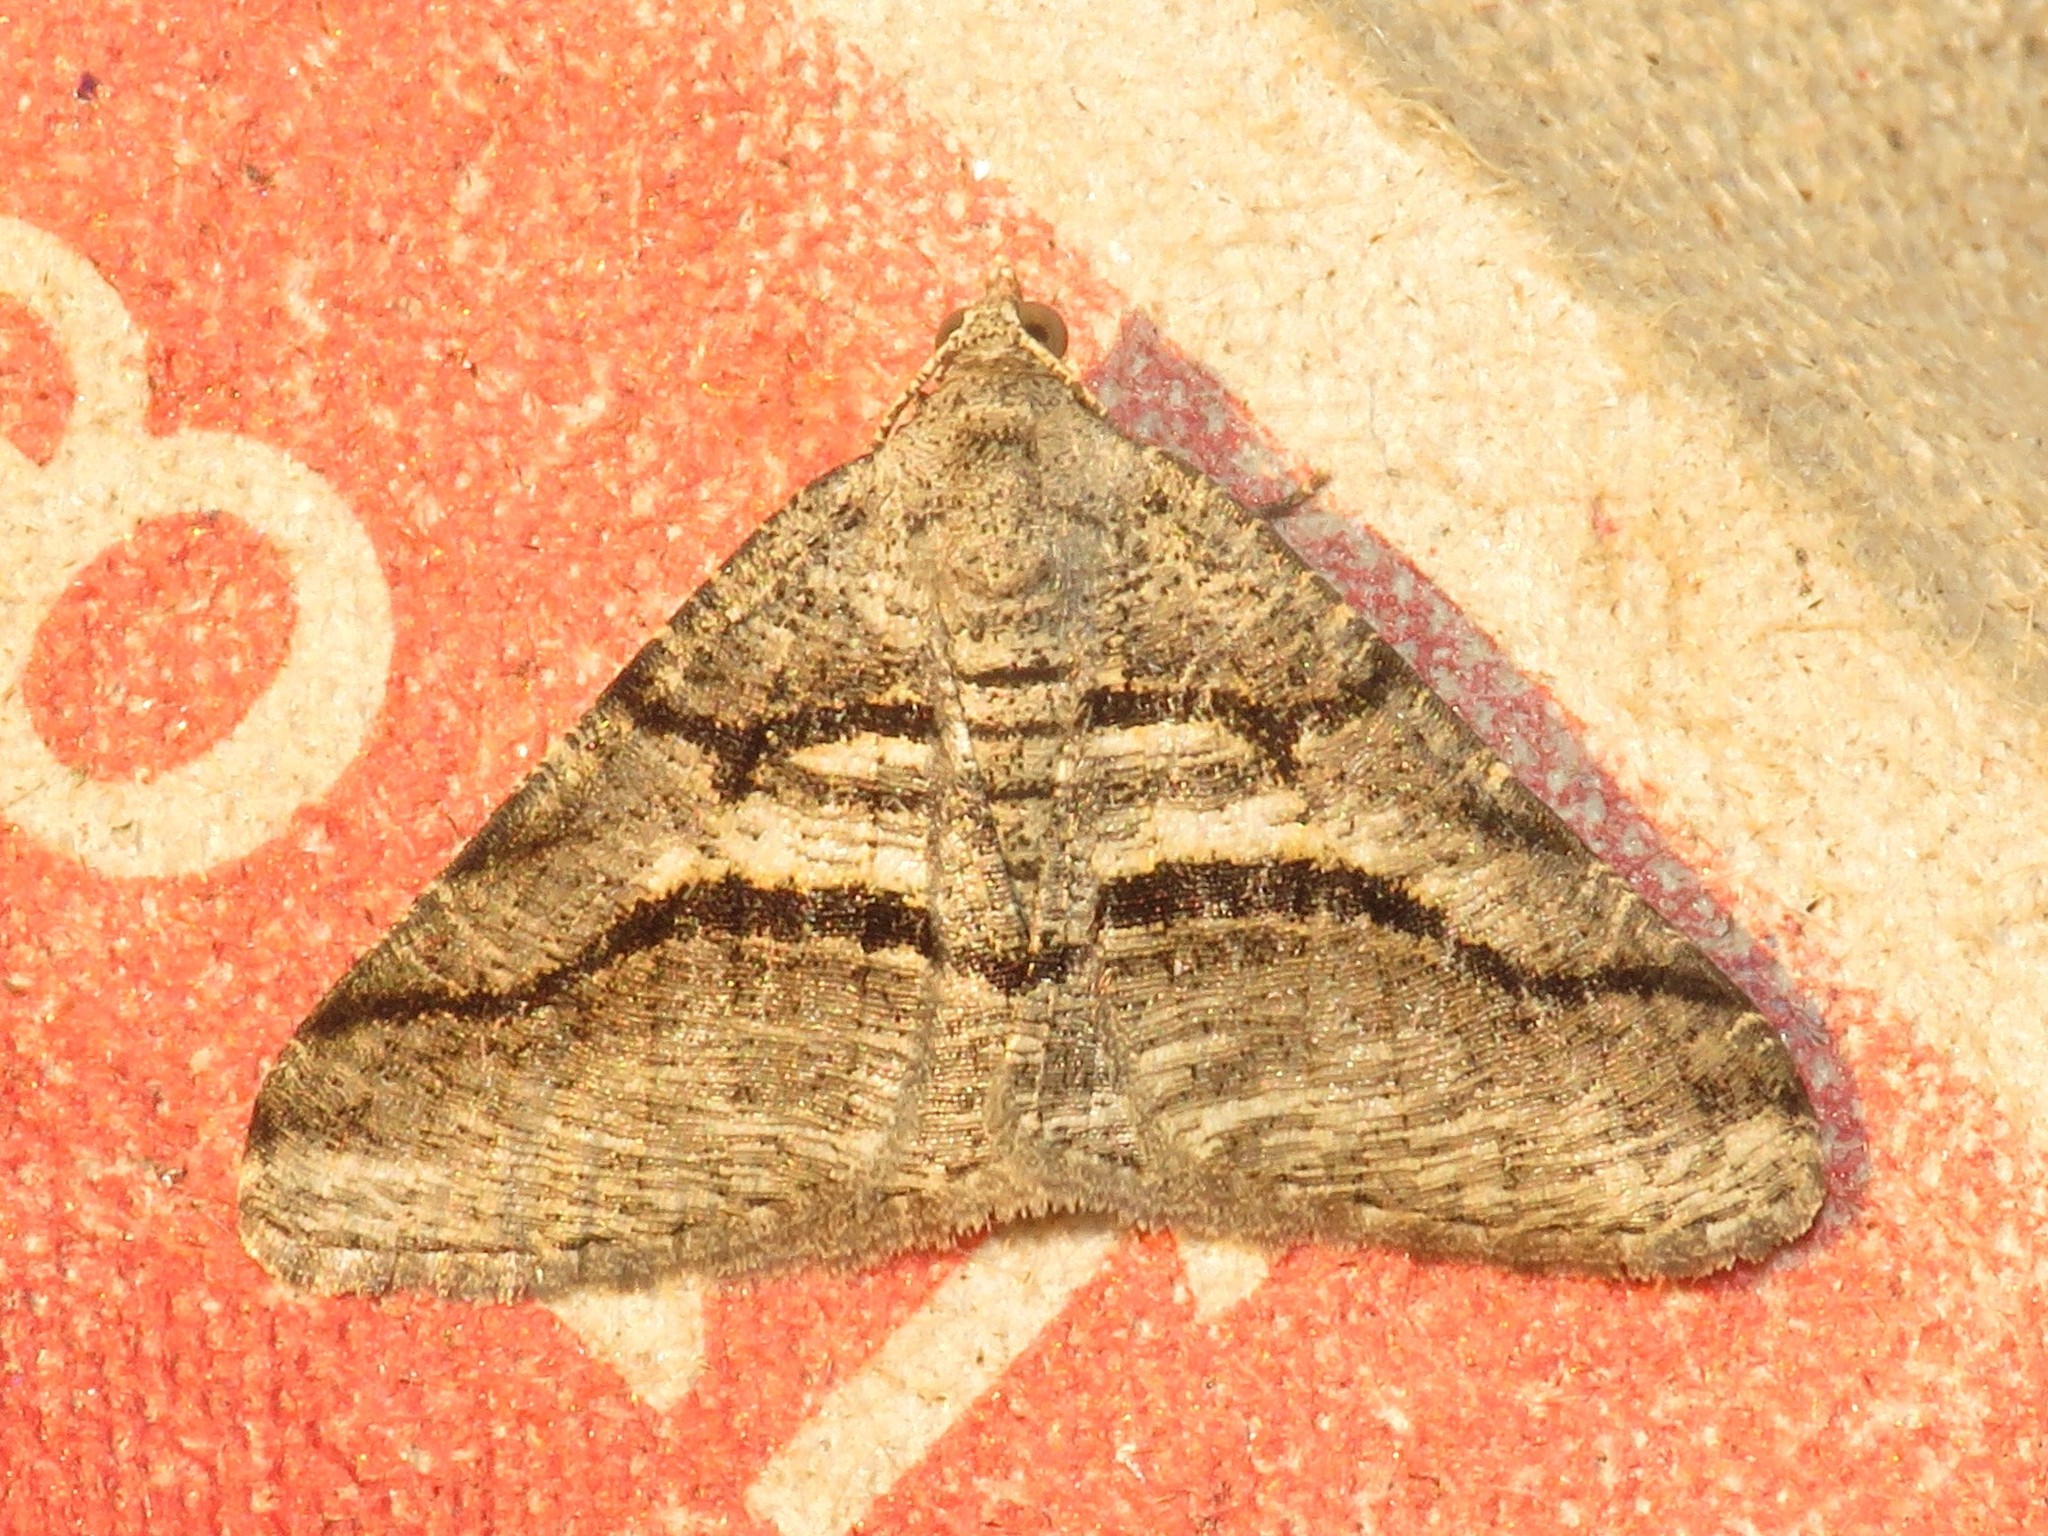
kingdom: Animalia
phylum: Arthropoda
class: Insecta
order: Lepidoptera
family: Geometridae
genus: Digrammia
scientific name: Digrammia continuata
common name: Curve-lined angle
